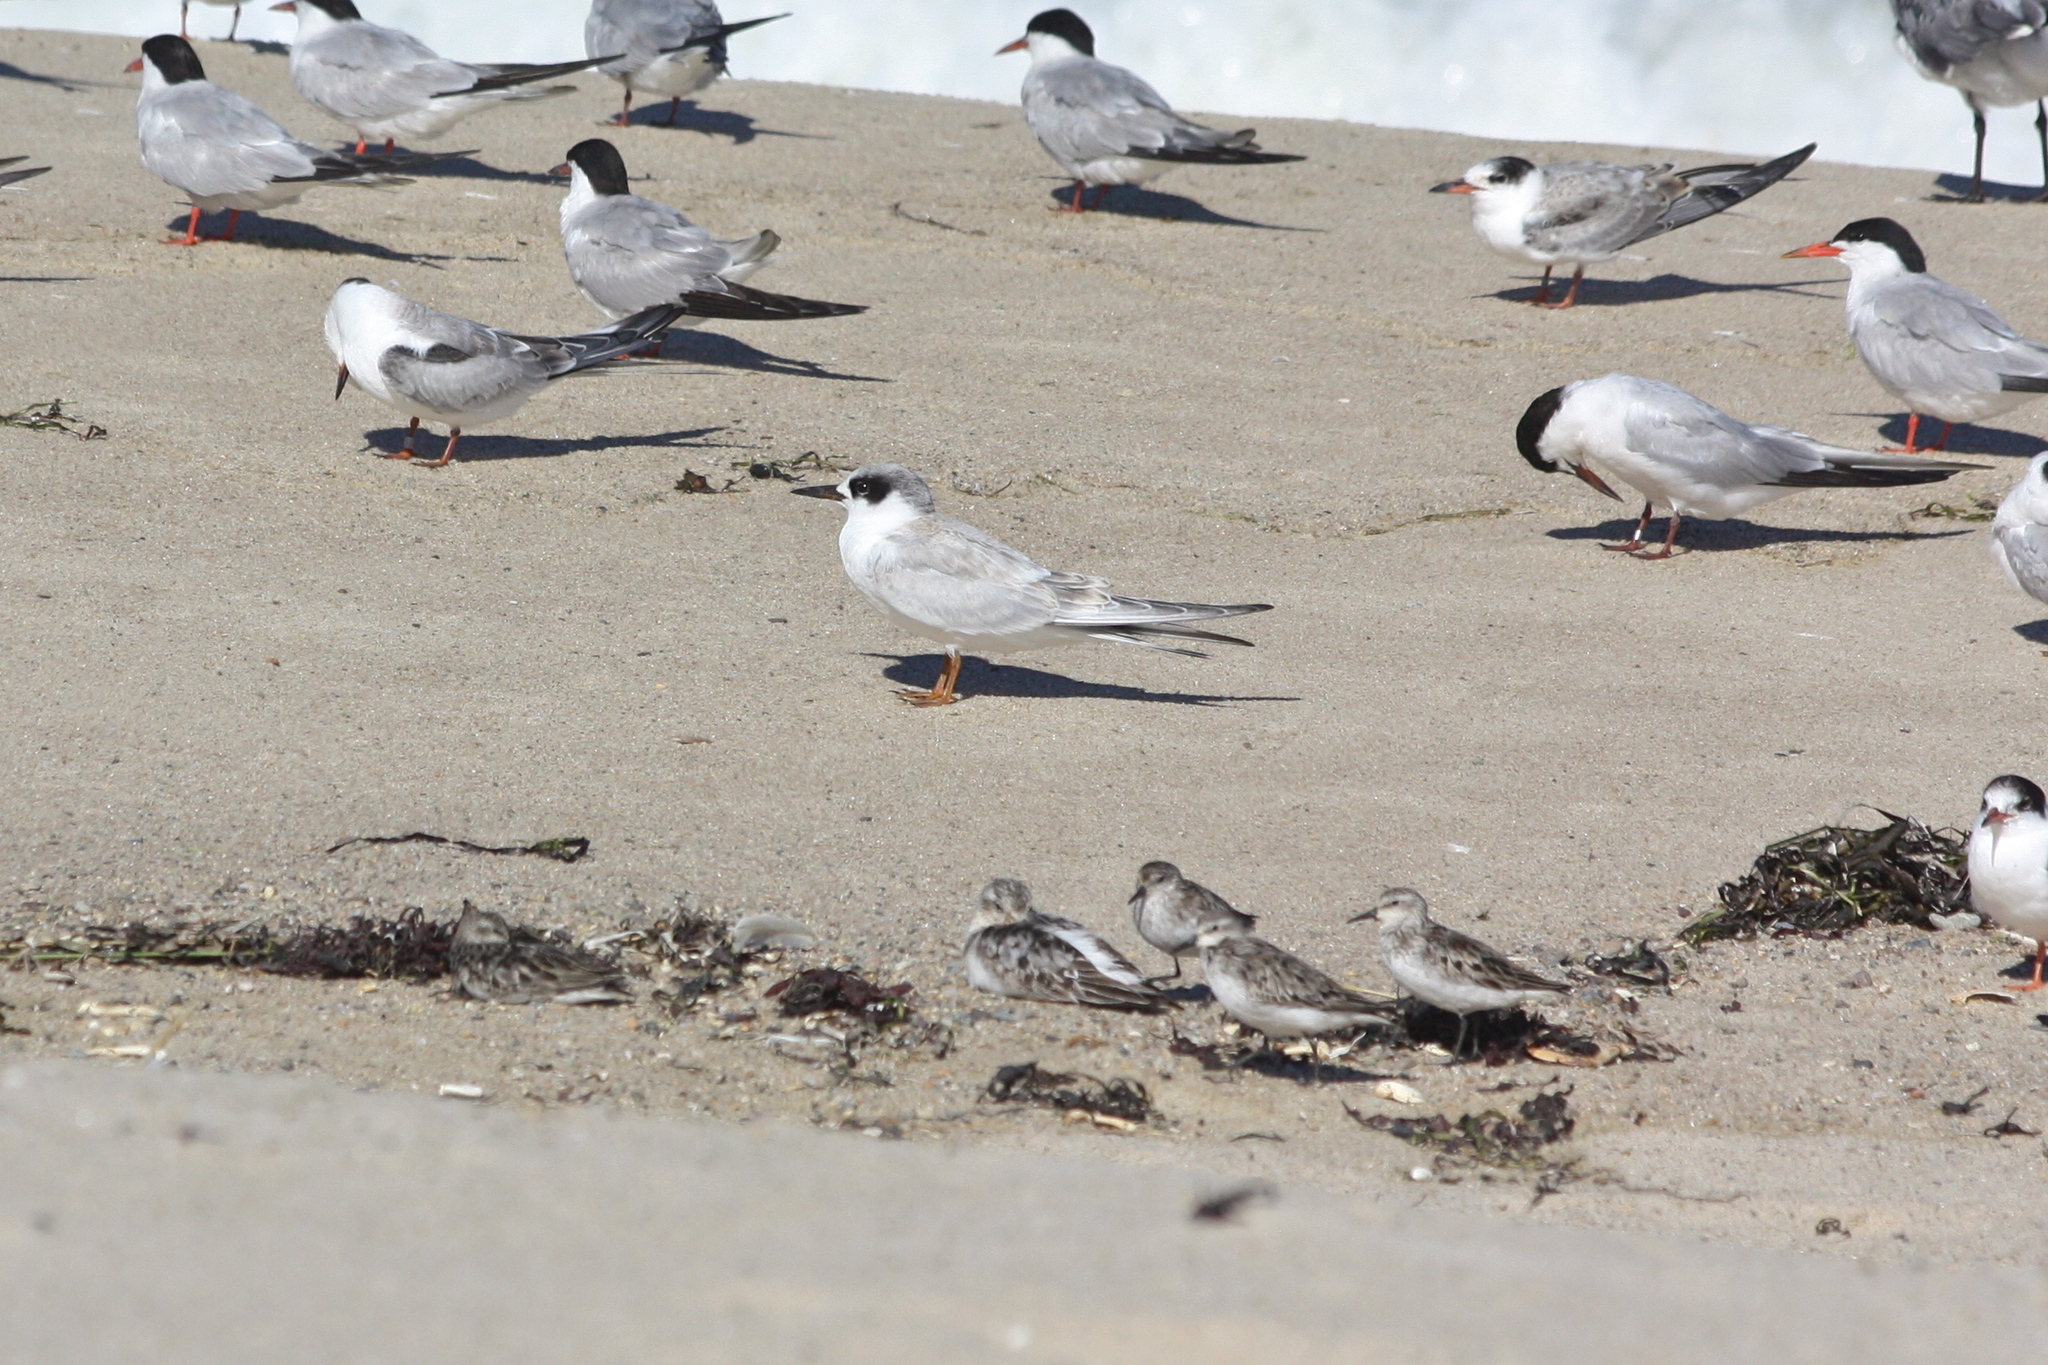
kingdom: Animalia
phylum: Chordata
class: Aves
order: Charadriiformes
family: Laridae
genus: Sterna
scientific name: Sterna forsteri
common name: Forster's tern
